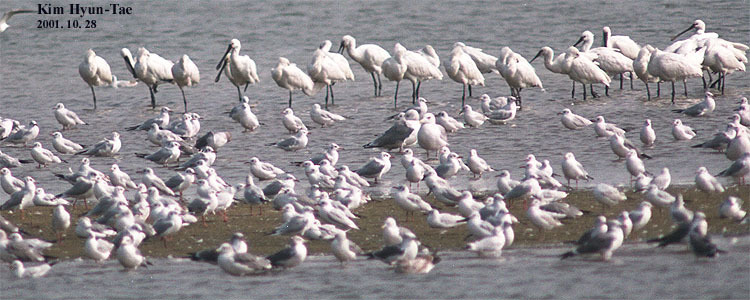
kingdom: Animalia
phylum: Chordata
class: Aves
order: Pelecaniformes
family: Threskiornithidae
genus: Platalea
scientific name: Platalea leucorodia
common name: Eurasian spoonbill
